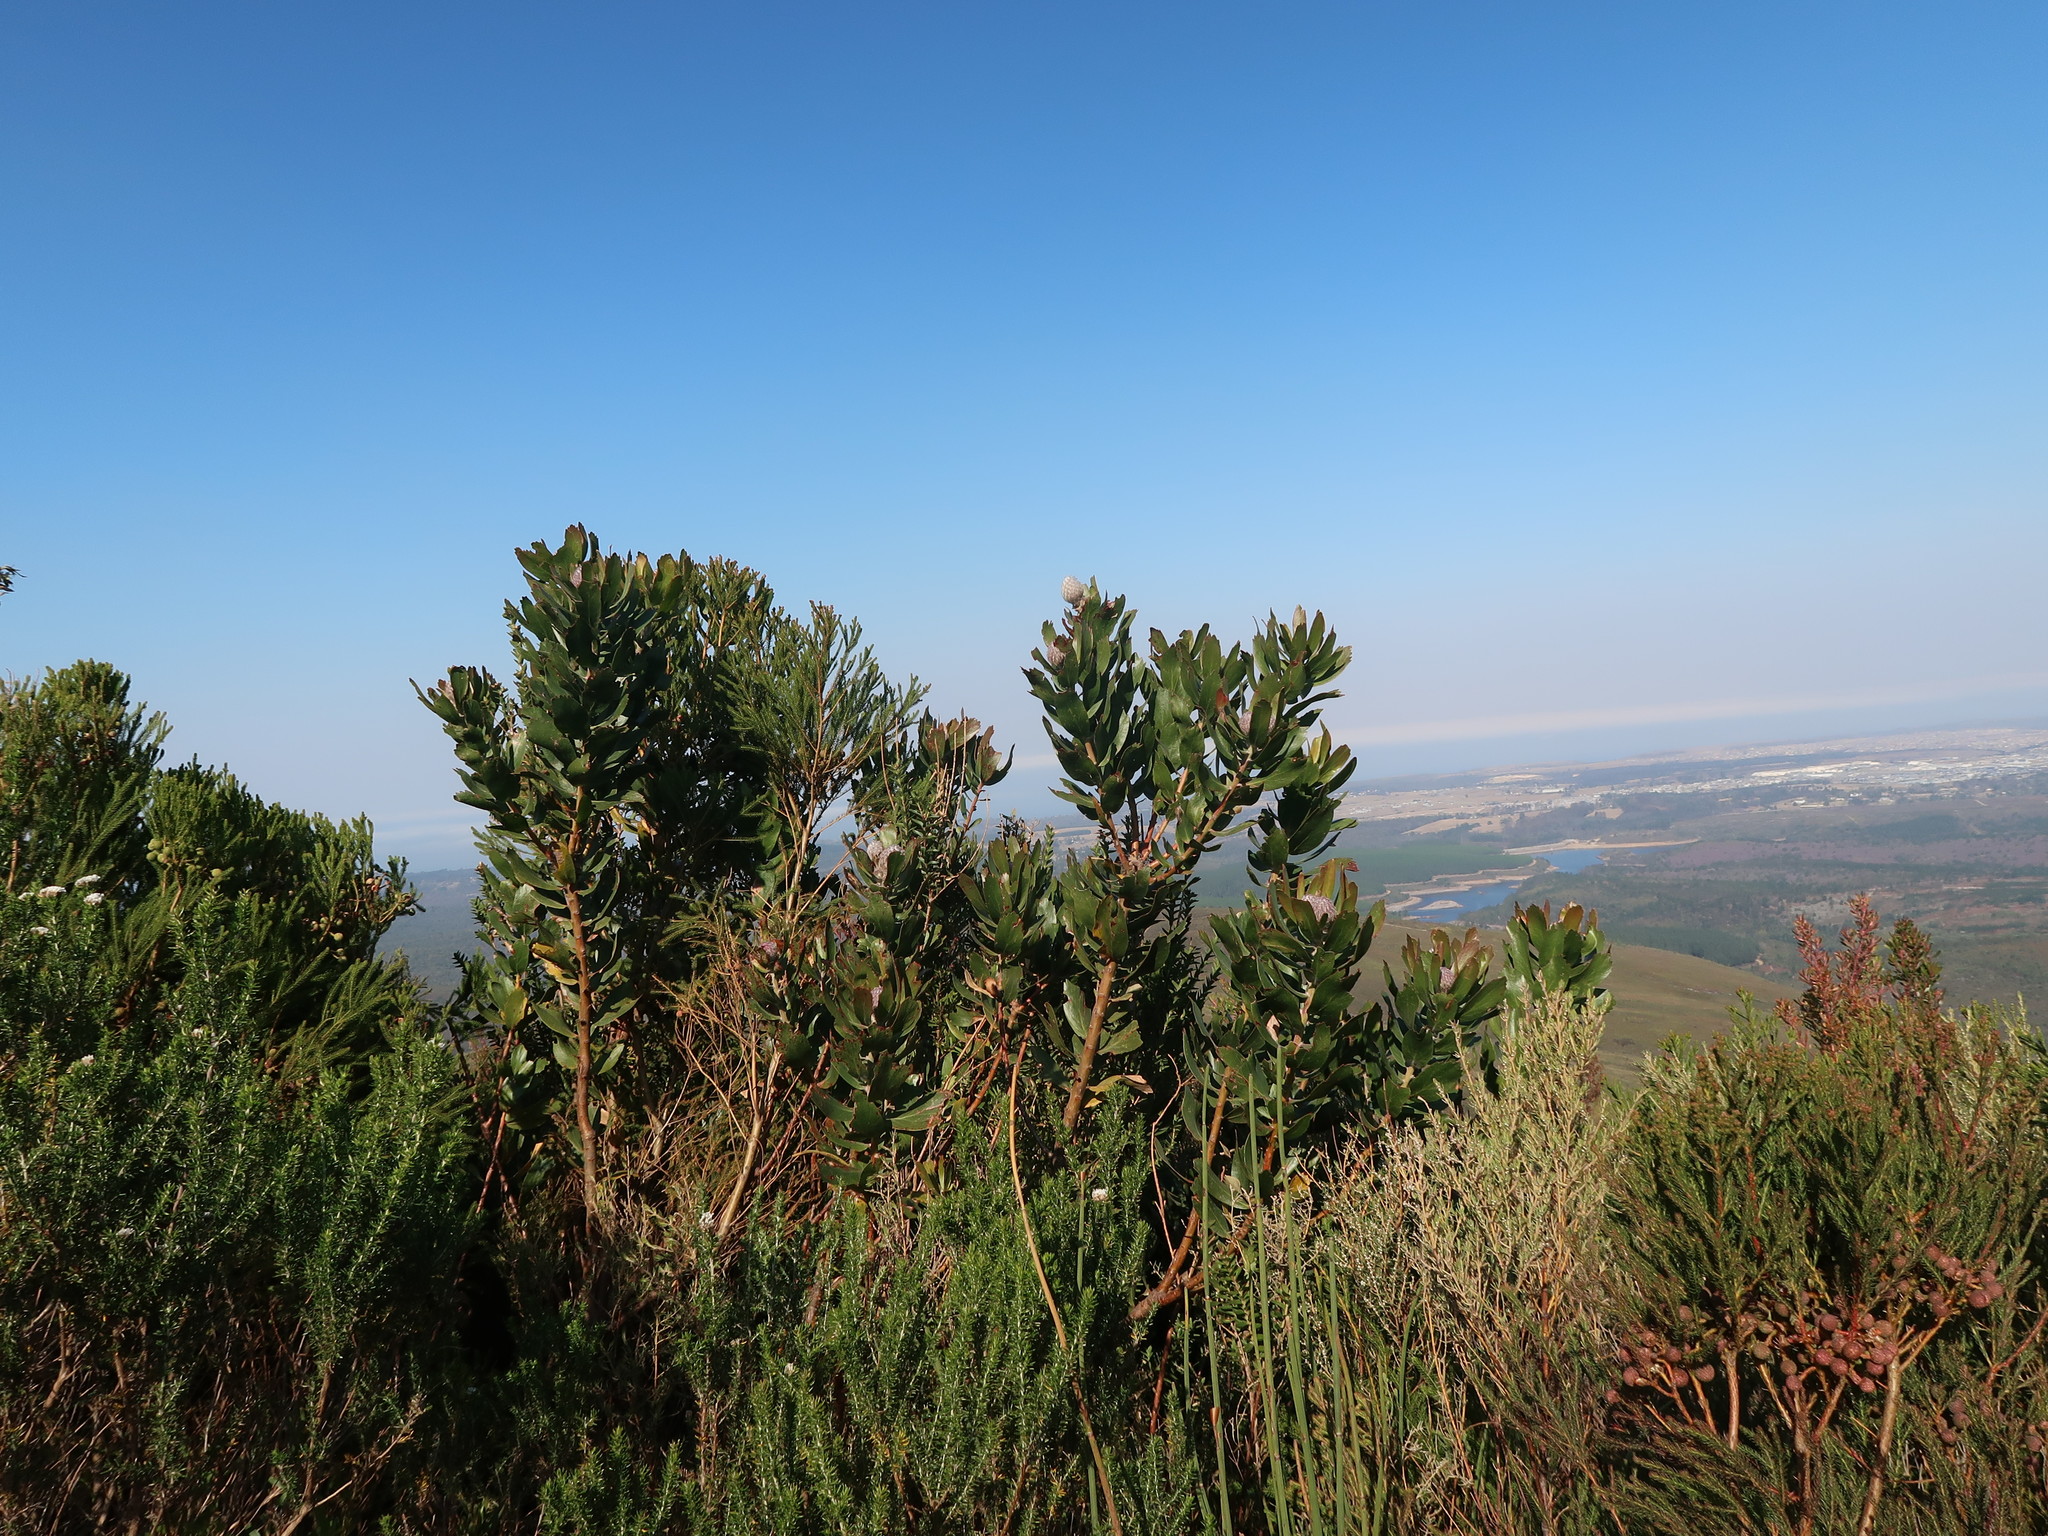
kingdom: Plantae
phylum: Tracheophyta
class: Magnoliopsida
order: Proteales
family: Proteaceae
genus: Leucospermum
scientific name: Leucospermum glabrum
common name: Outeniqua pincushion
